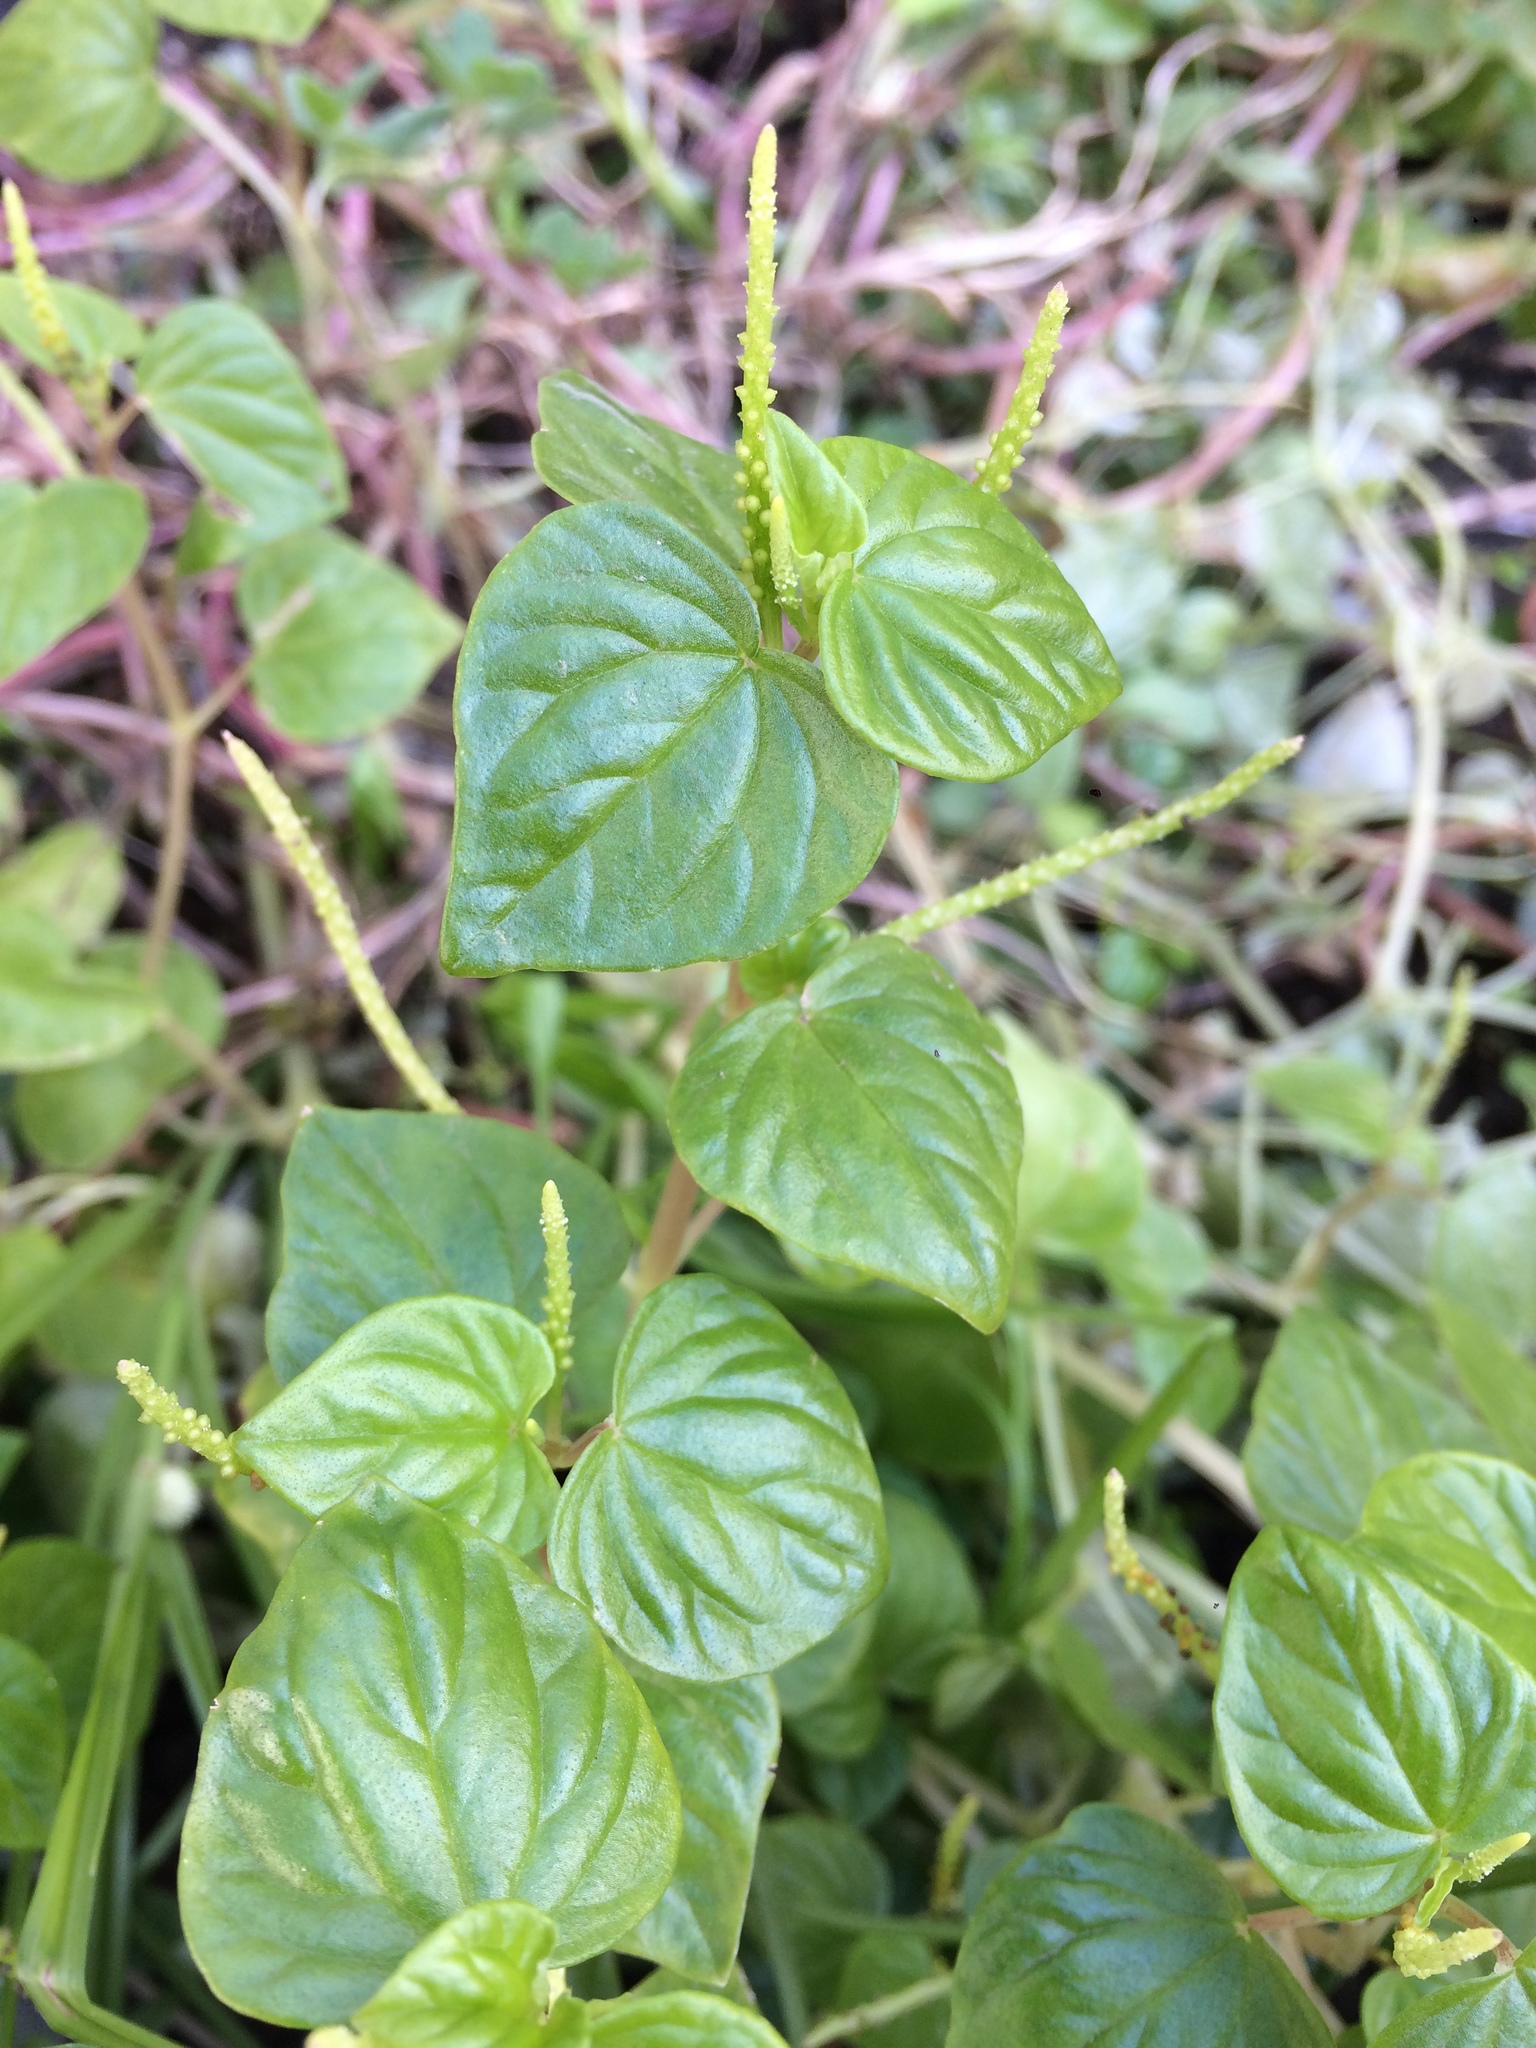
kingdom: Plantae
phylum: Tracheophyta
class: Magnoliopsida
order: Piperales
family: Piperaceae
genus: Peperomia
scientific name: Peperomia pellucida
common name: Man to man
